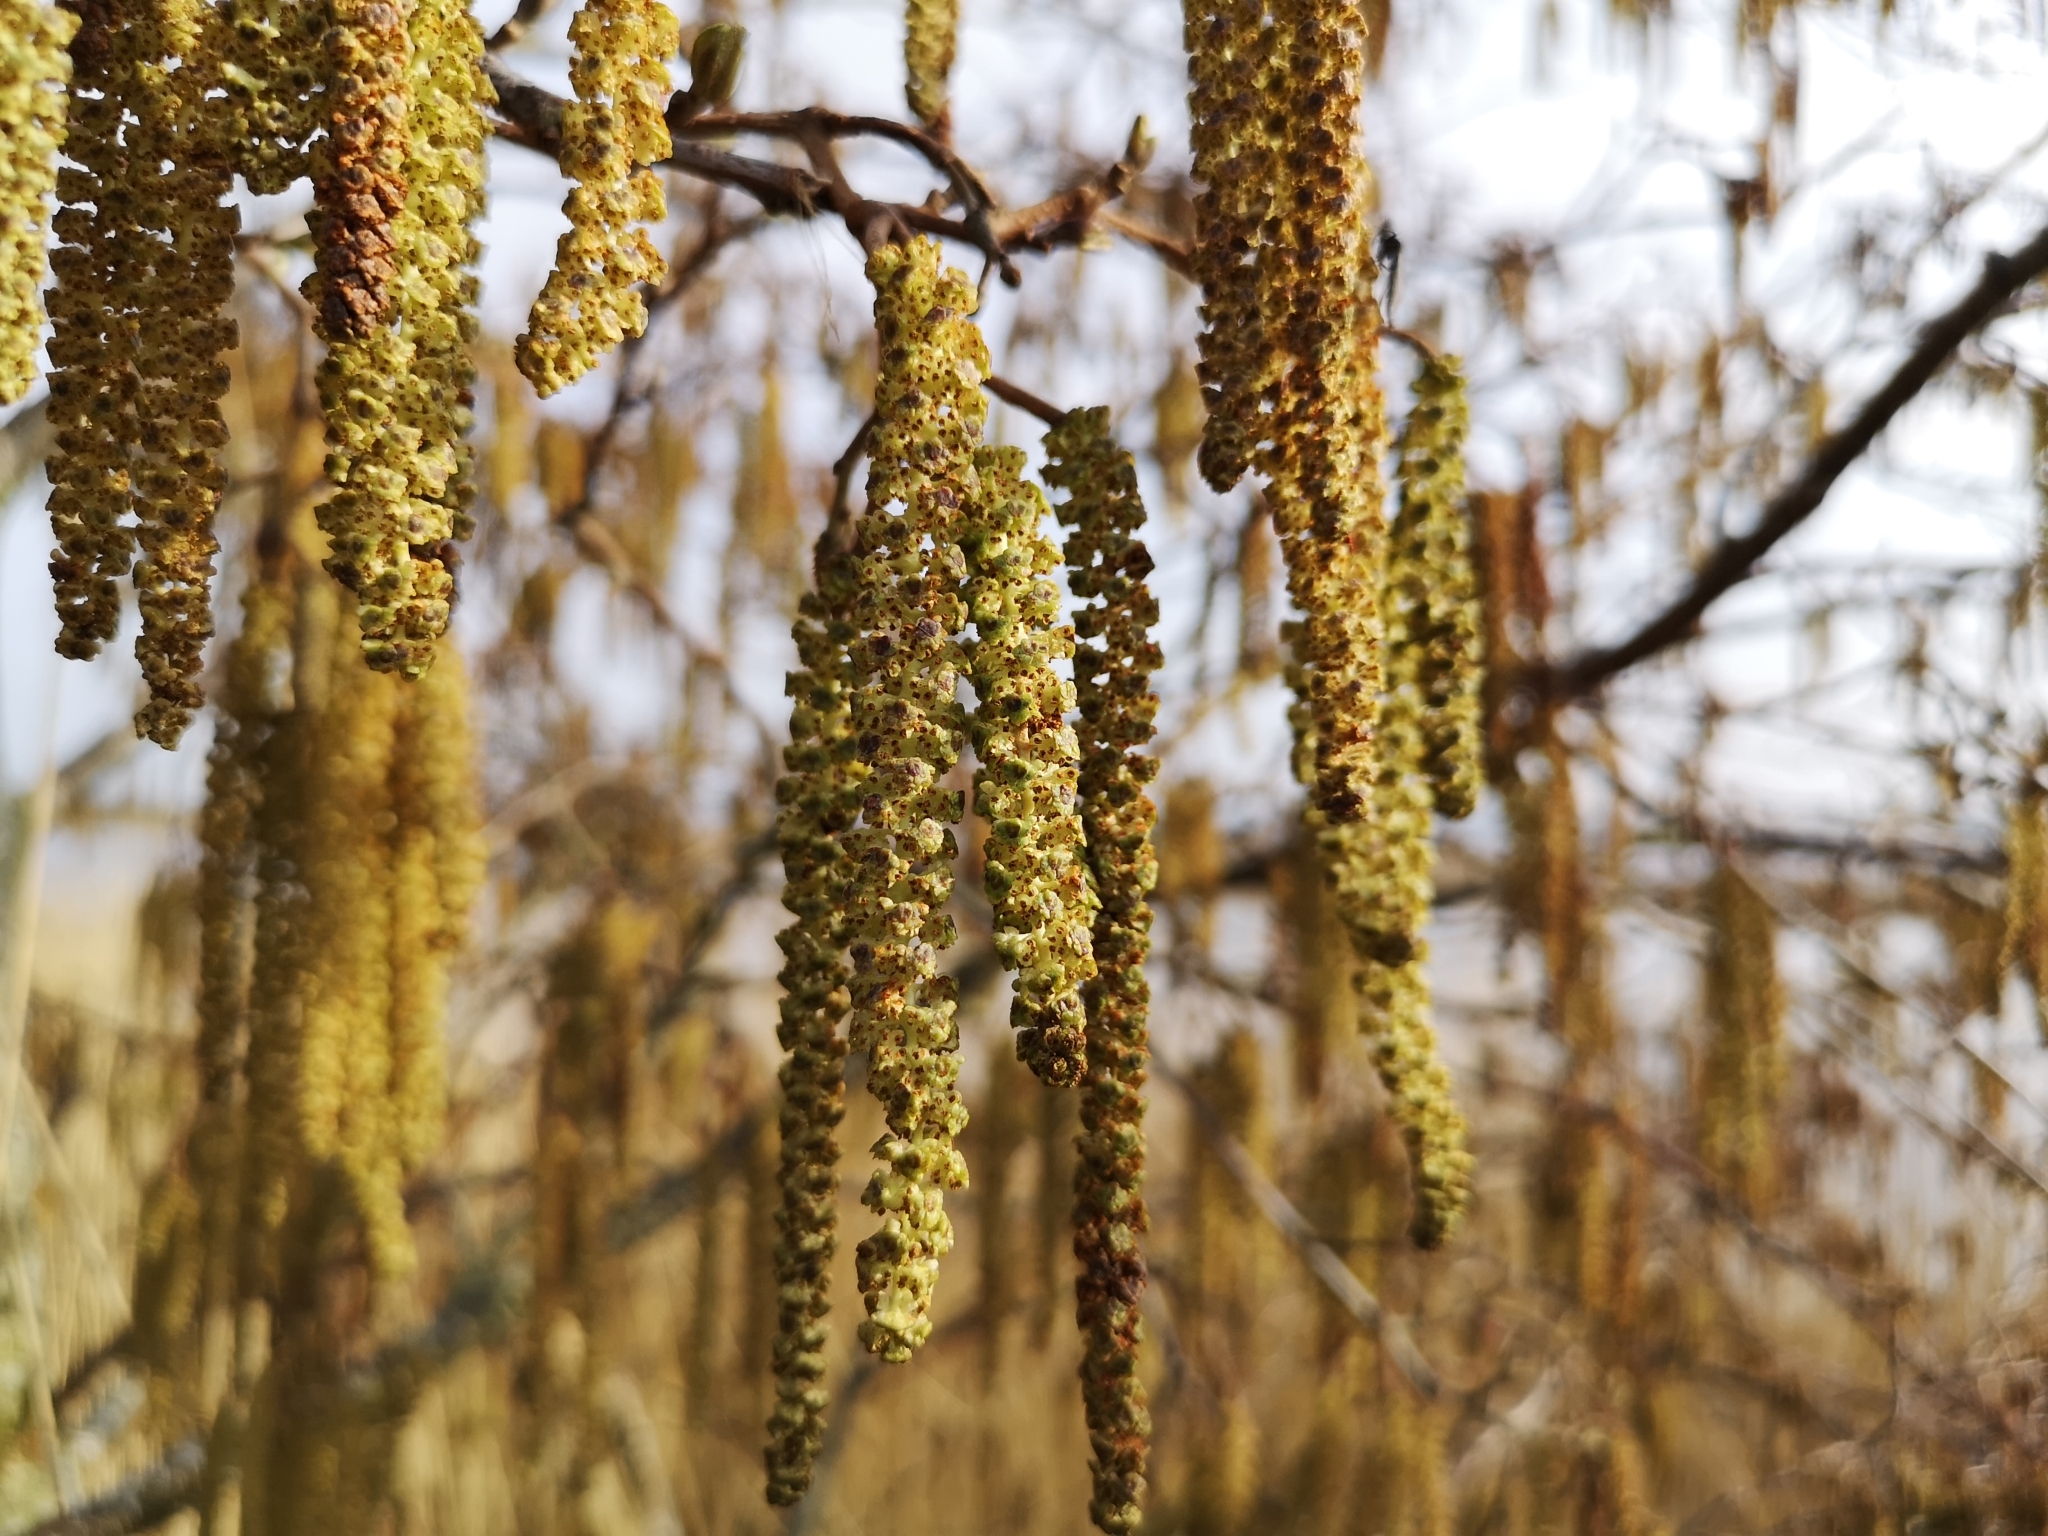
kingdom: Plantae
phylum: Tracheophyta
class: Magnoliopsida
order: Fagales
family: Betulaceae
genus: Alnus
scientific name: Alnus glutinosa
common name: Black alder
